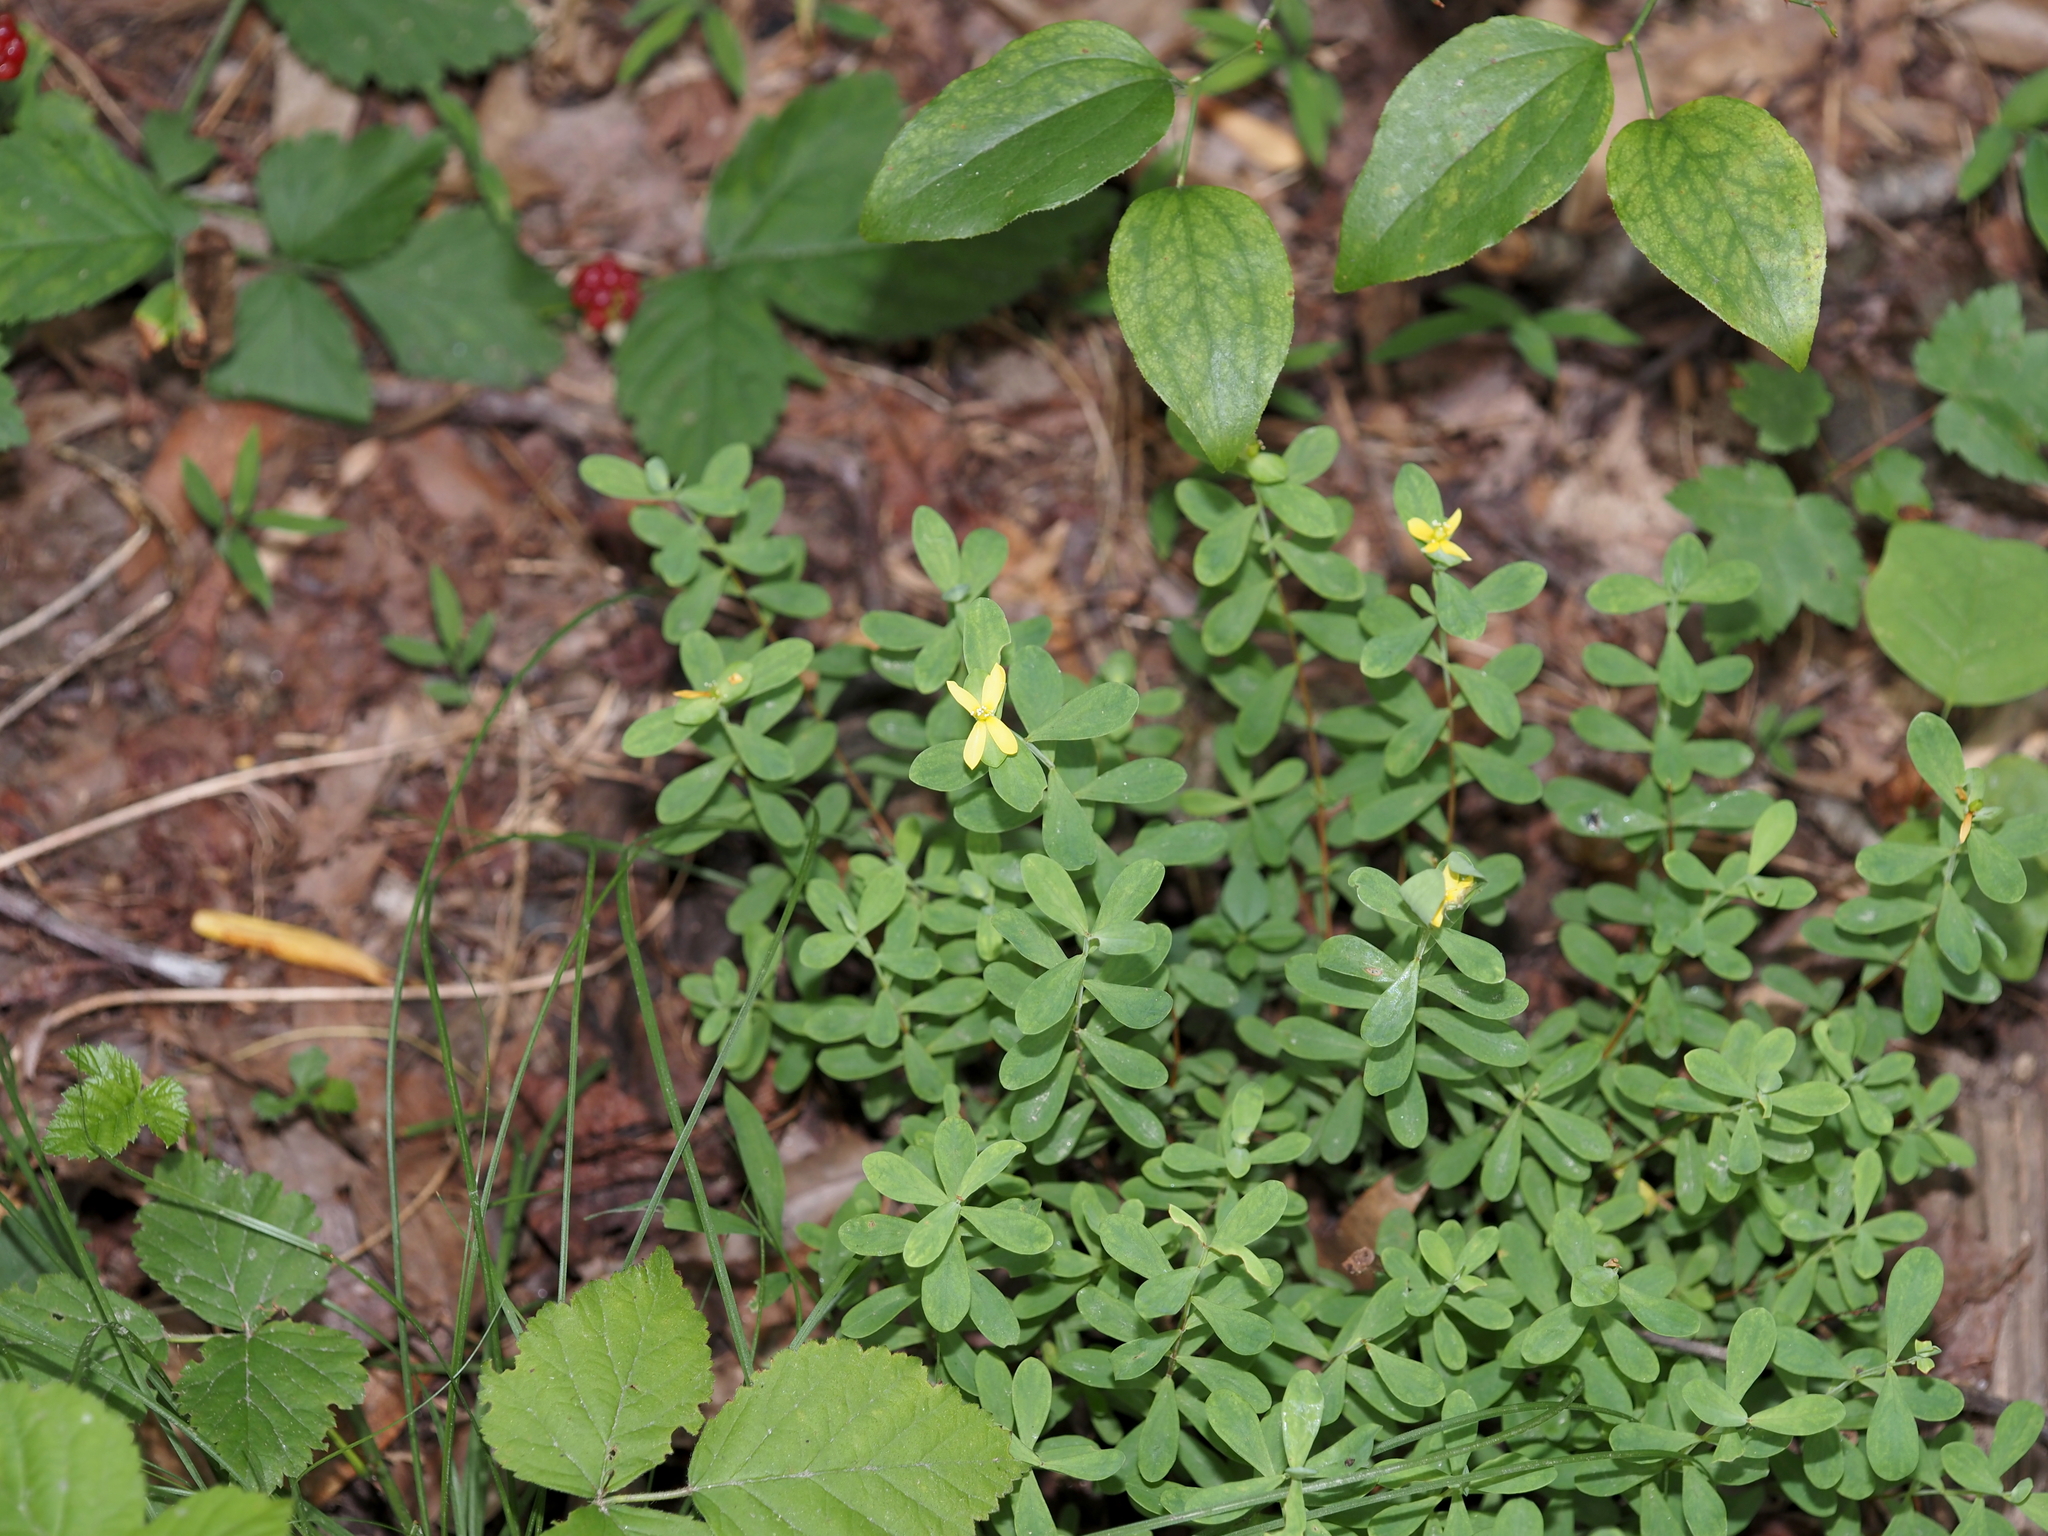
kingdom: Plantae
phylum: Tracheophyta
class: Magnoliopsida
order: Malpighiales
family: Hypericaceae
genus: Hypericum
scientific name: Hypericum hypericoides
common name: St. andrew's cross
